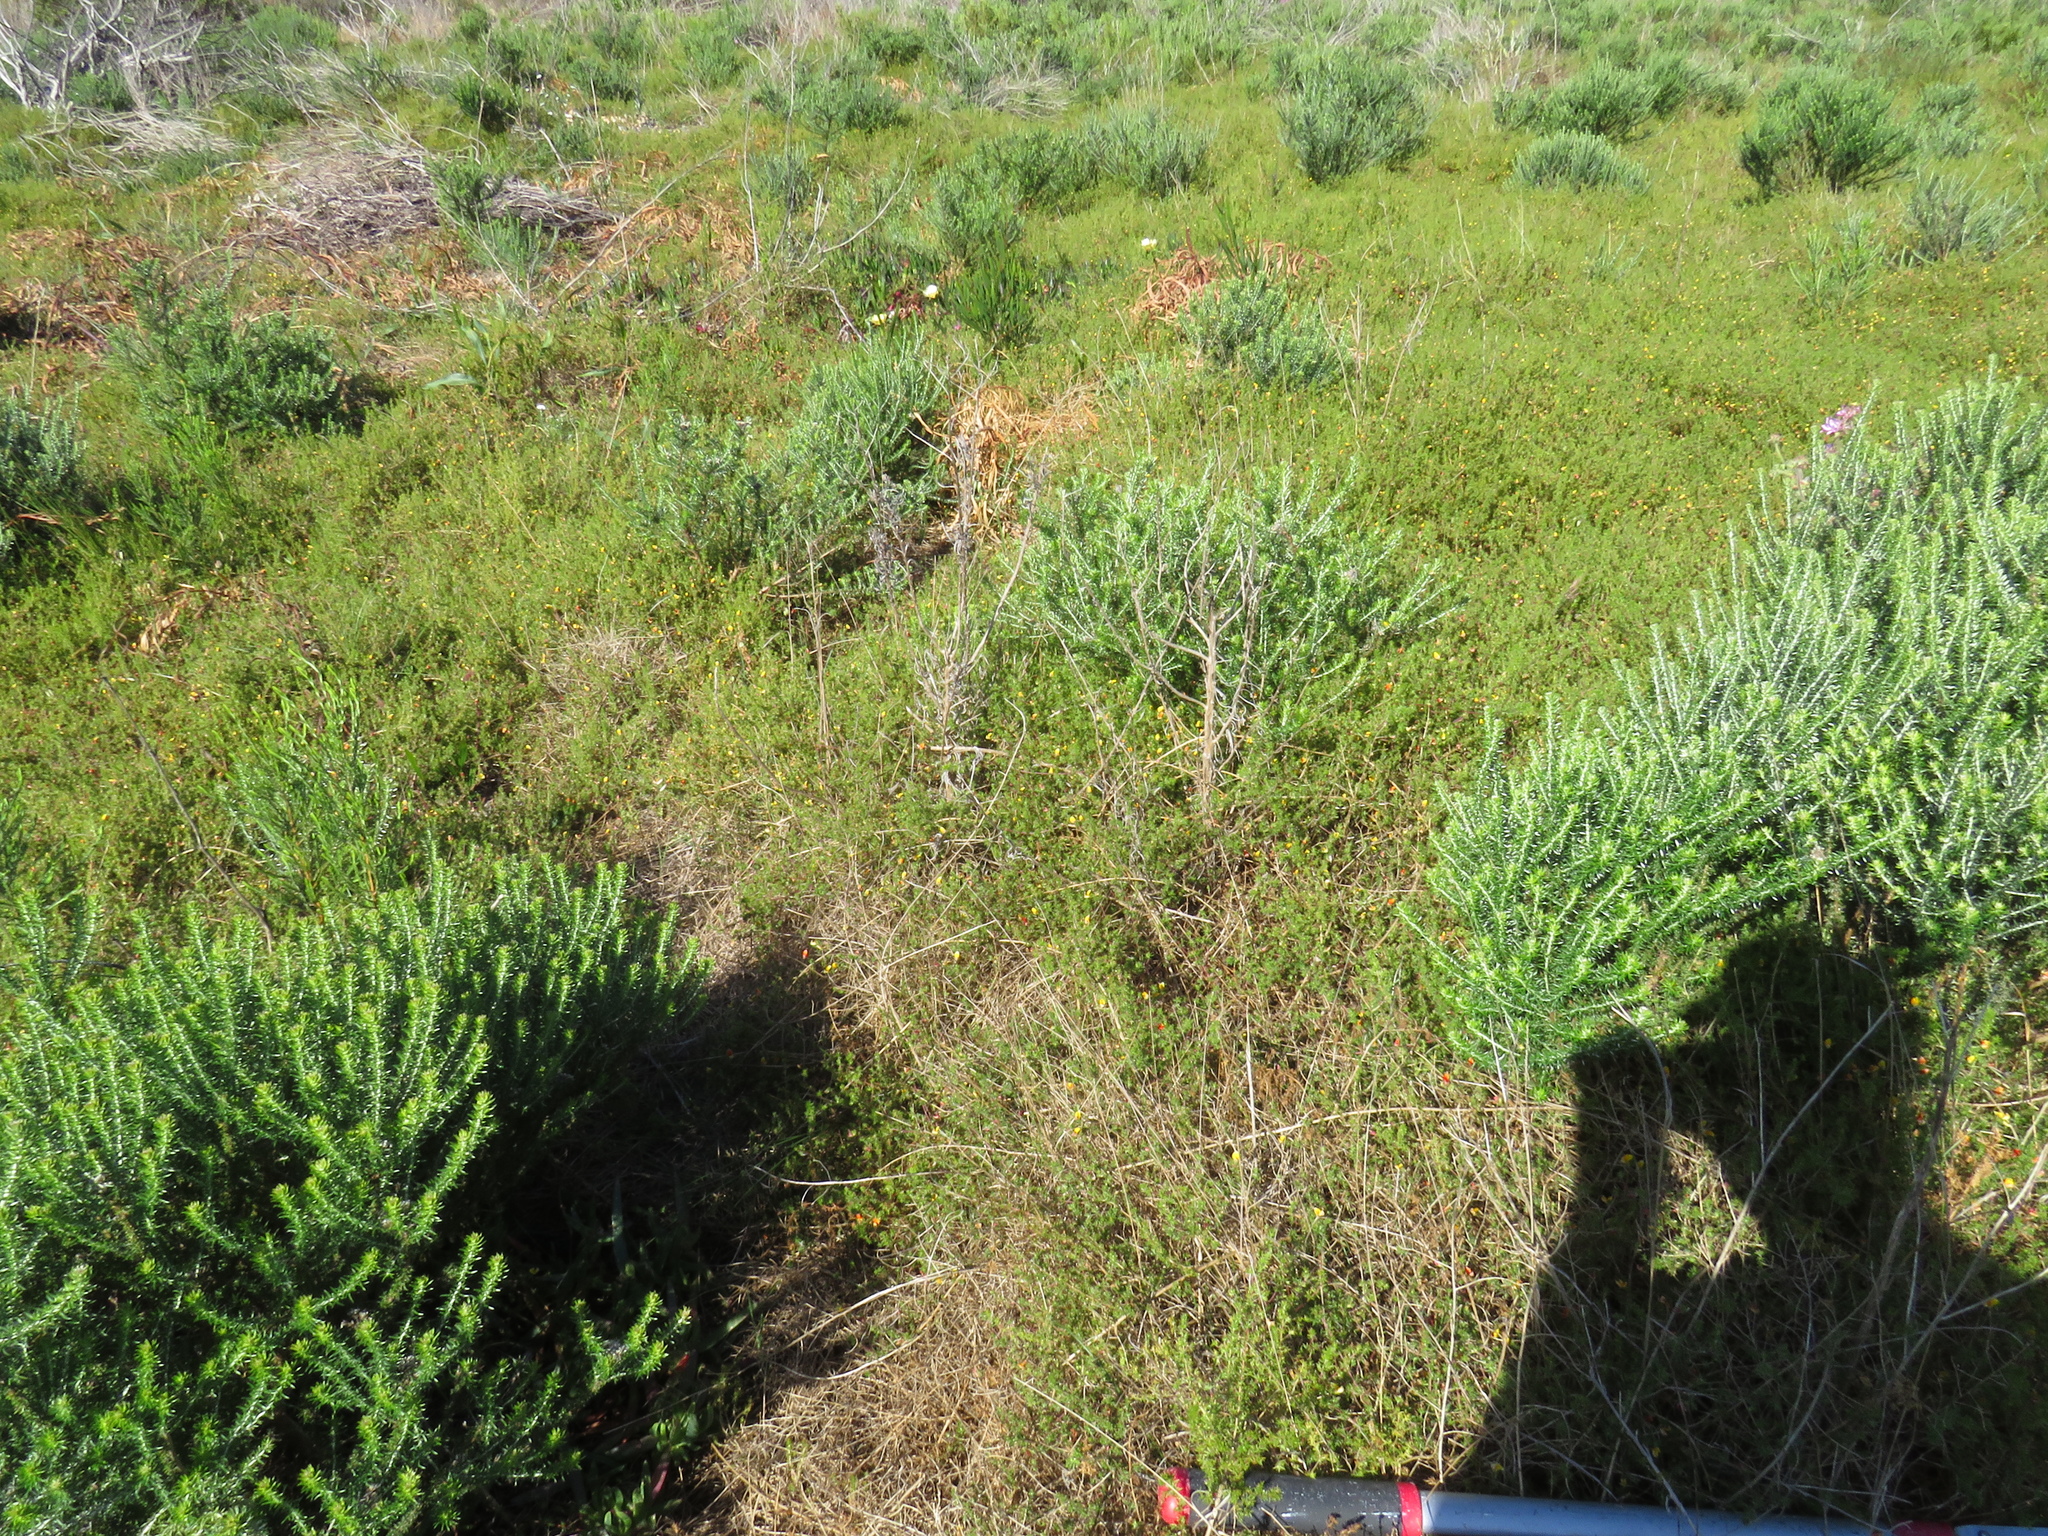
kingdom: Animalia
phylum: Chordata
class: Squamata
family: Pseudaspididae
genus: Pseudaspis
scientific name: Pseudaspis cana
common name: Mole snake
